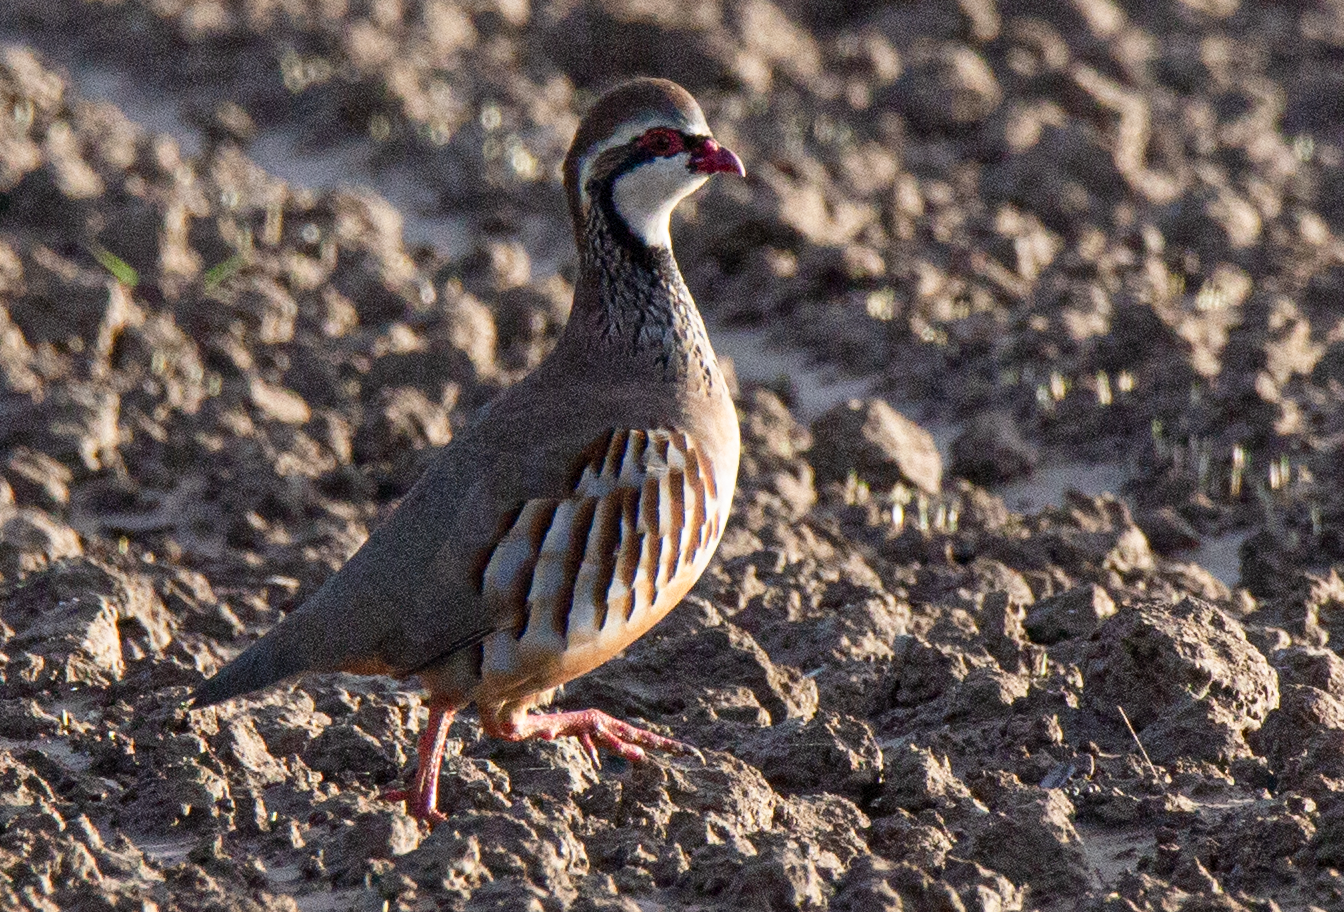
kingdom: Animalia
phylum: Chordata
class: Aves
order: Galliformes
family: Phasianidae
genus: Alectoris
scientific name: Alectoris rufa
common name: Red-legged partridge
